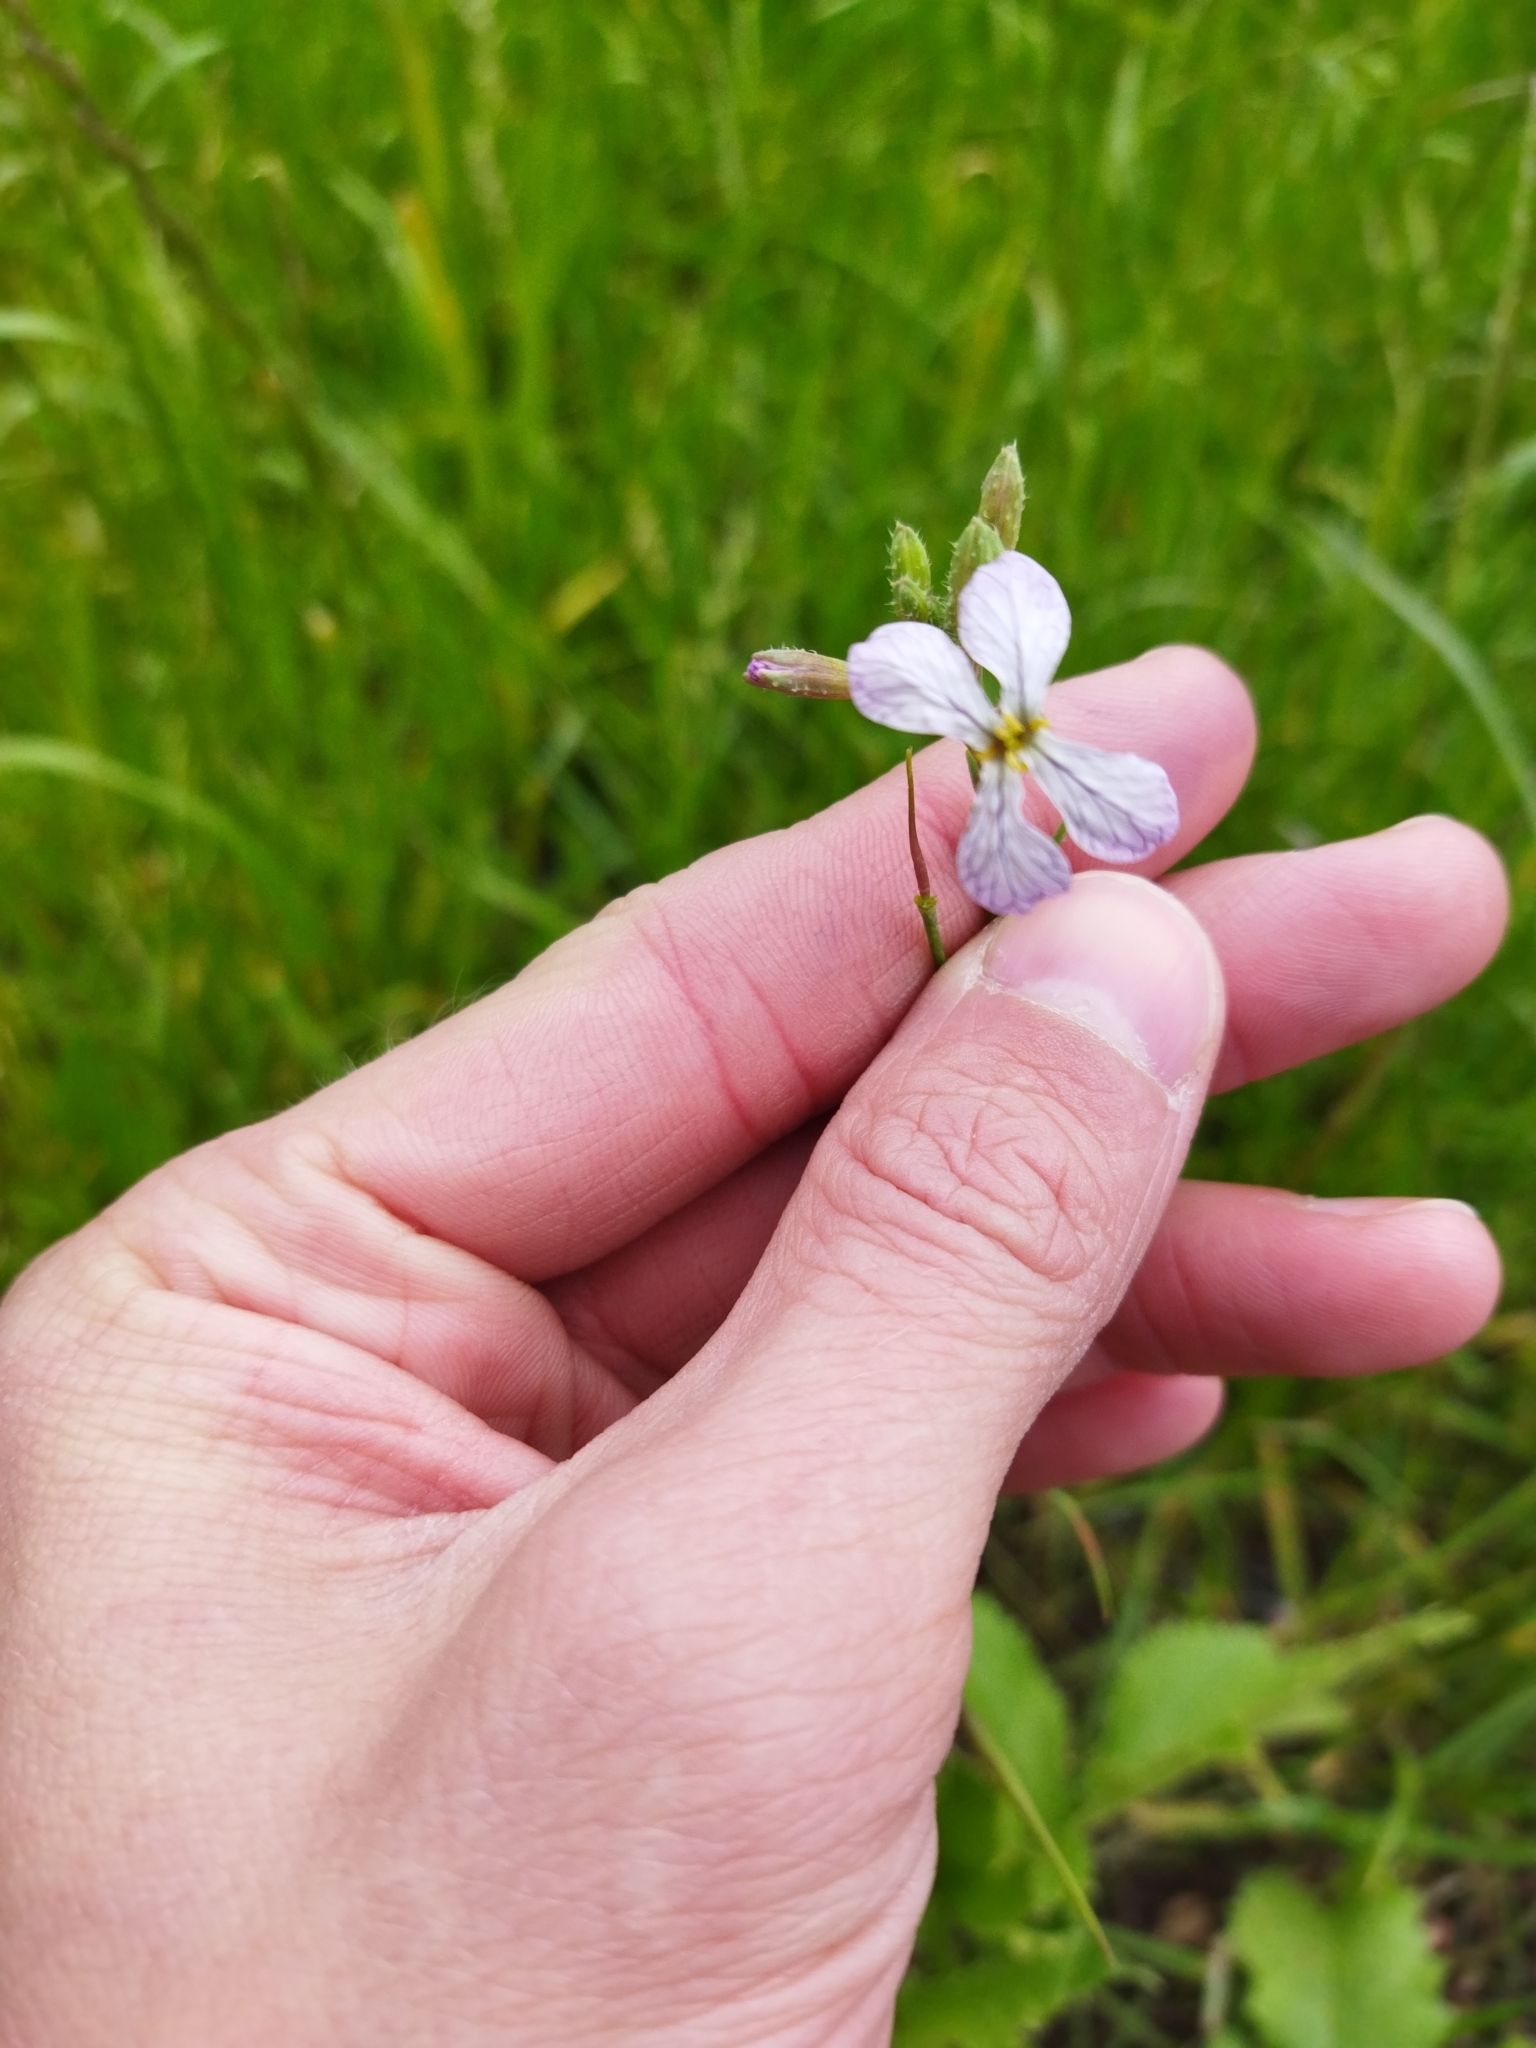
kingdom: Plantae
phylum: Tracheophyta
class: Magnoliopsida
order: Brassicales
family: Brassicaceae
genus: Raphanus
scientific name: Raphanus sativus
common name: Cultivated radish
